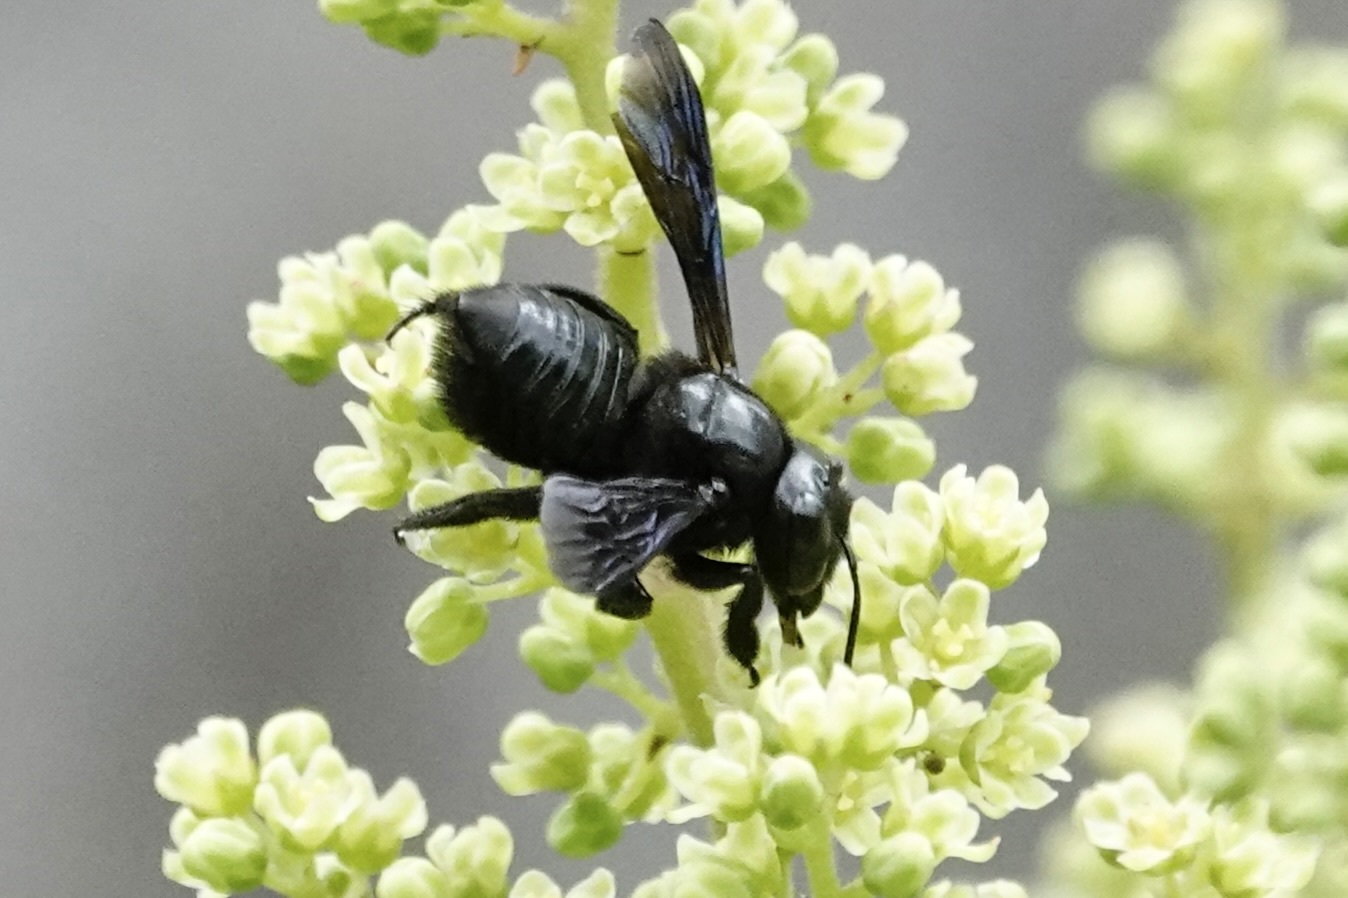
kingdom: Animalia
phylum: Arthropoda
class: Insecta
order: Hymenoptera
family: Megachilidae
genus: Megachile
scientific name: Megachile xylocopoides
